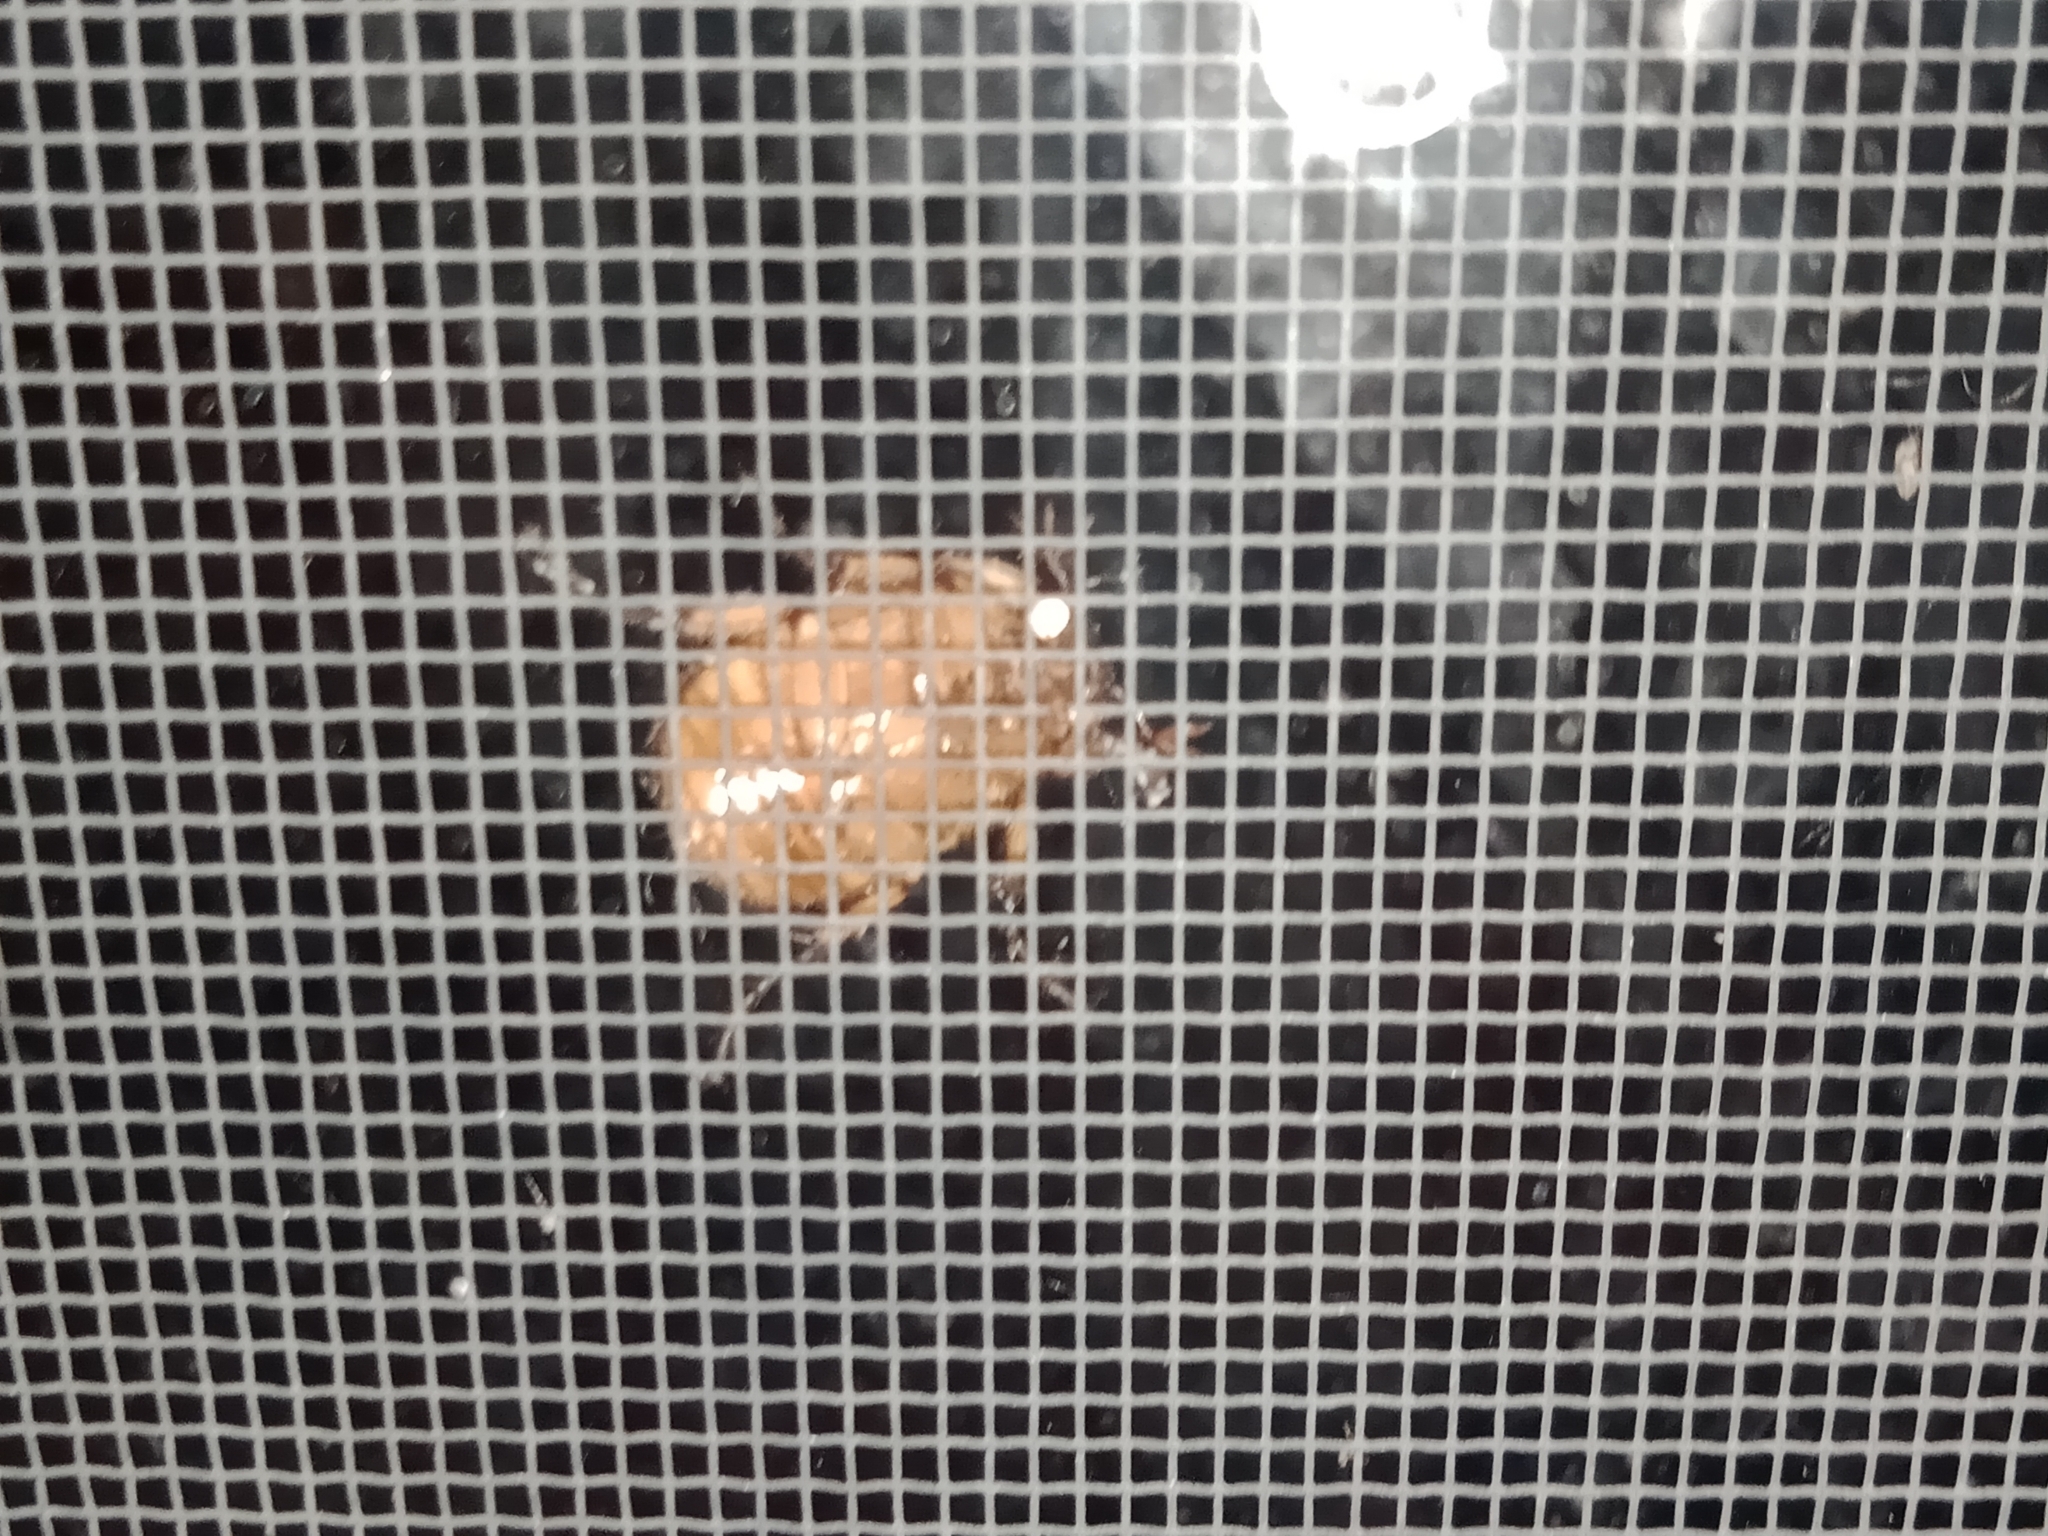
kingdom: Animalia
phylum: Arthropoda
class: Insecta
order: Coleoptera
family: Scarabaeidae
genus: Cyclocephala
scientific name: Cyclocephala signaticollis
